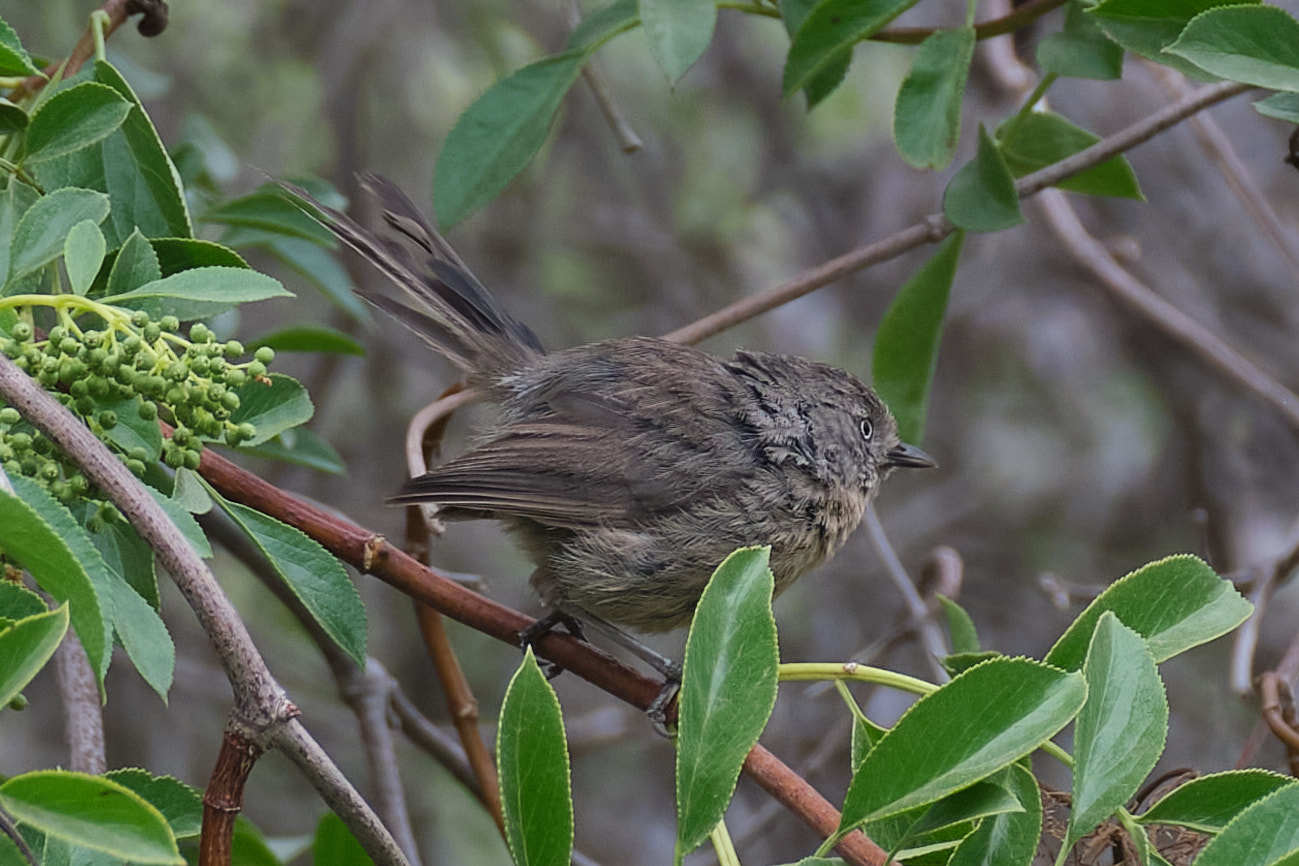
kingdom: Animalia
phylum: Chordata
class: Aves
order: Passeriformes
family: Sylviidae
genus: Chamaea
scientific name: Chamaea fasciata
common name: Wrentit
